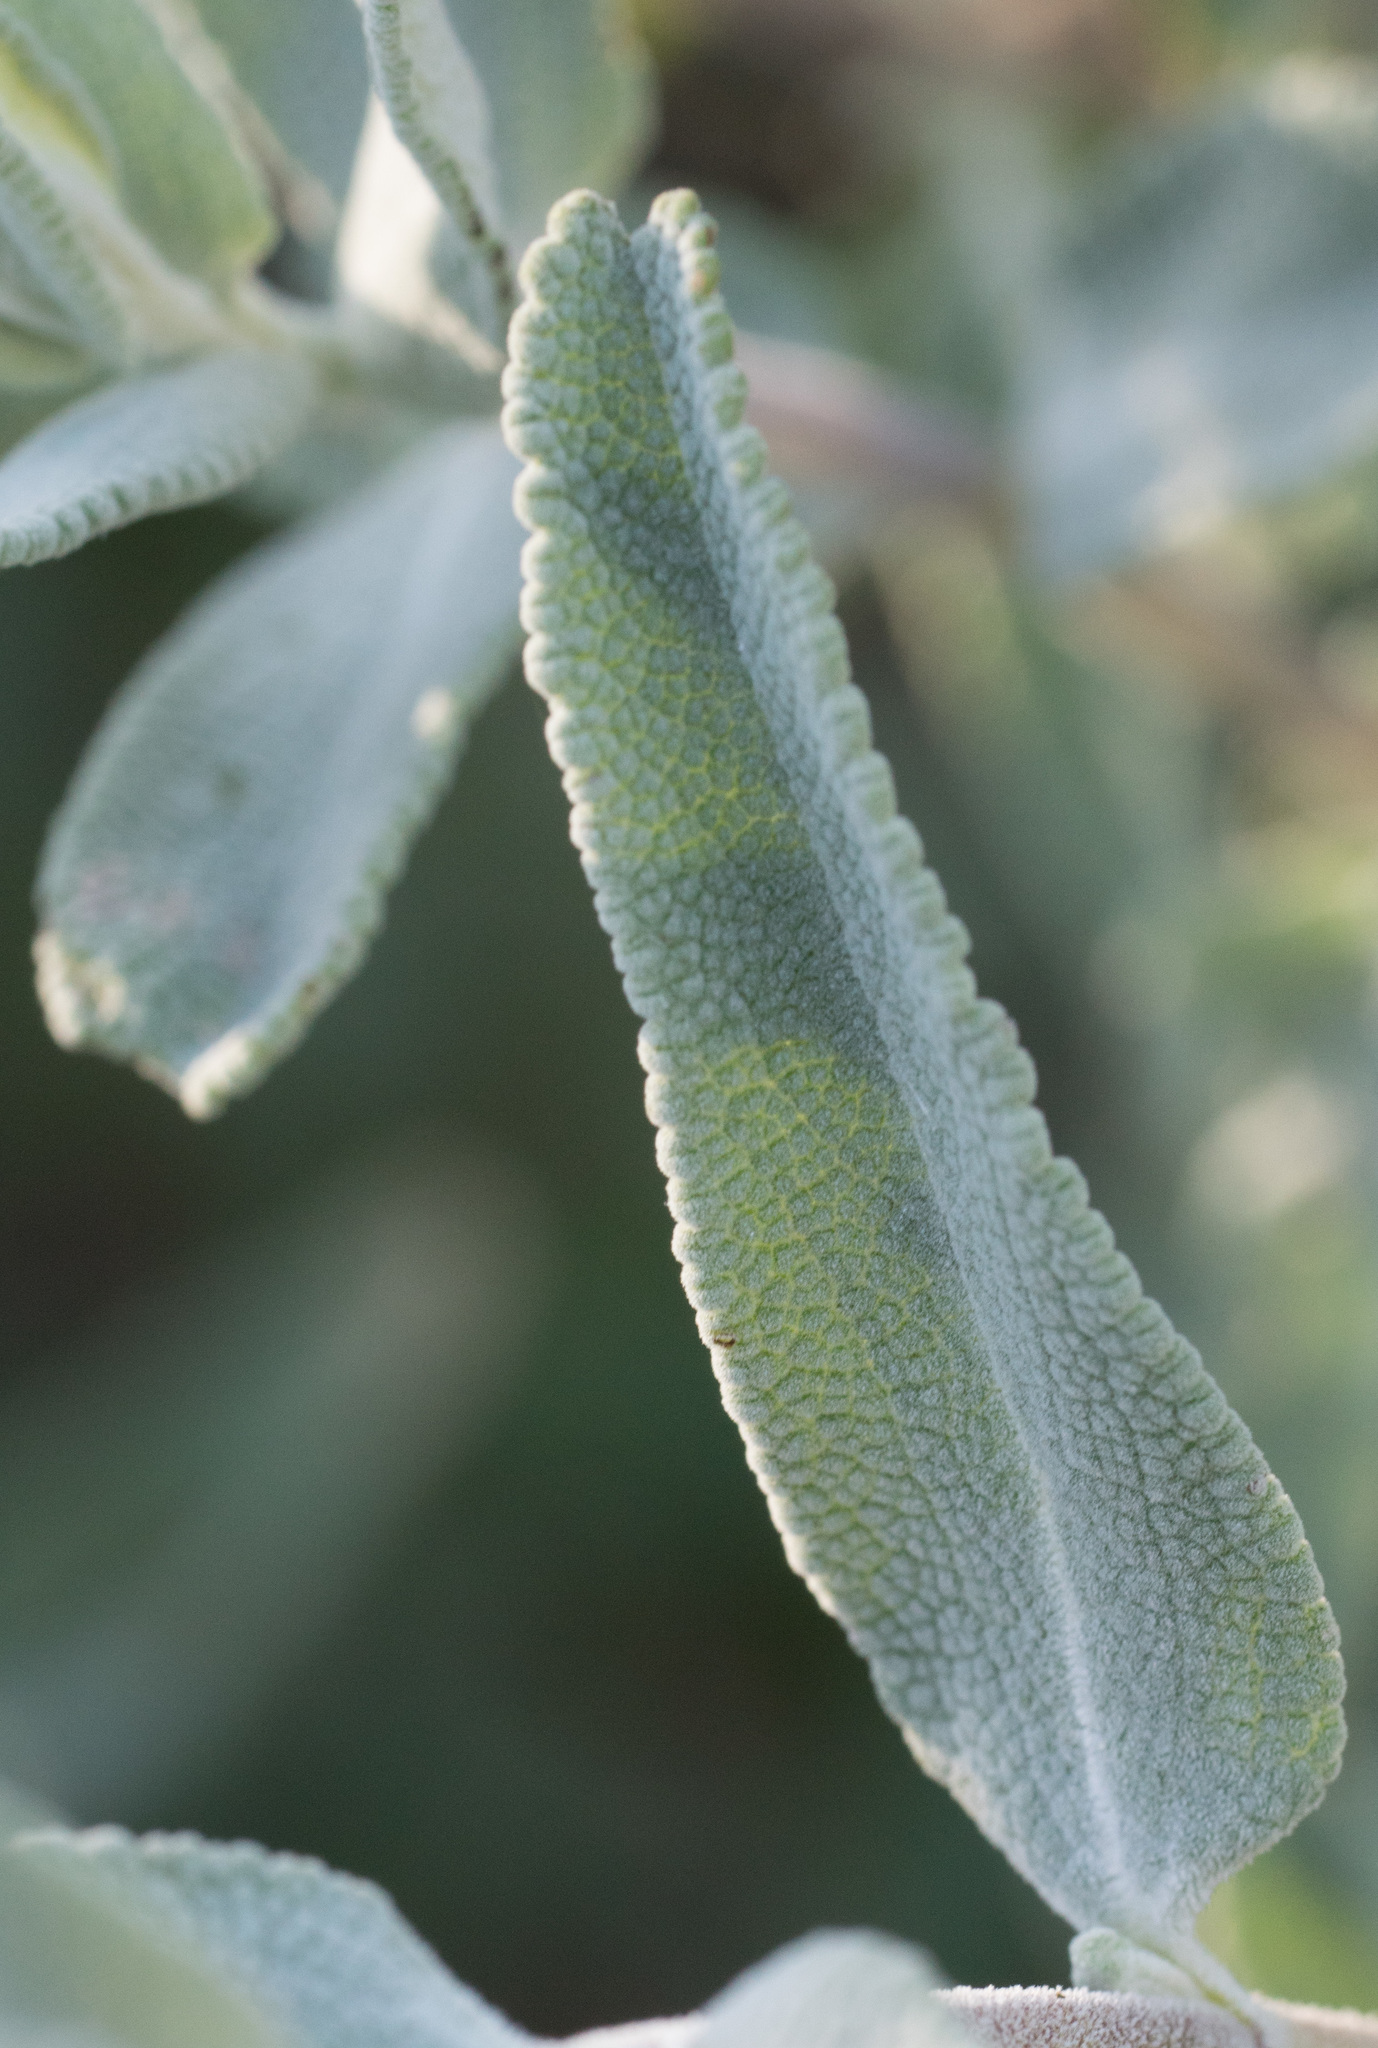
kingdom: Plantae
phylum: Tracheophyta
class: Magnoliopsida
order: Lamiales
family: Lamiaceae
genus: Salvia
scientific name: Salvia leucophylla
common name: Purple sage
